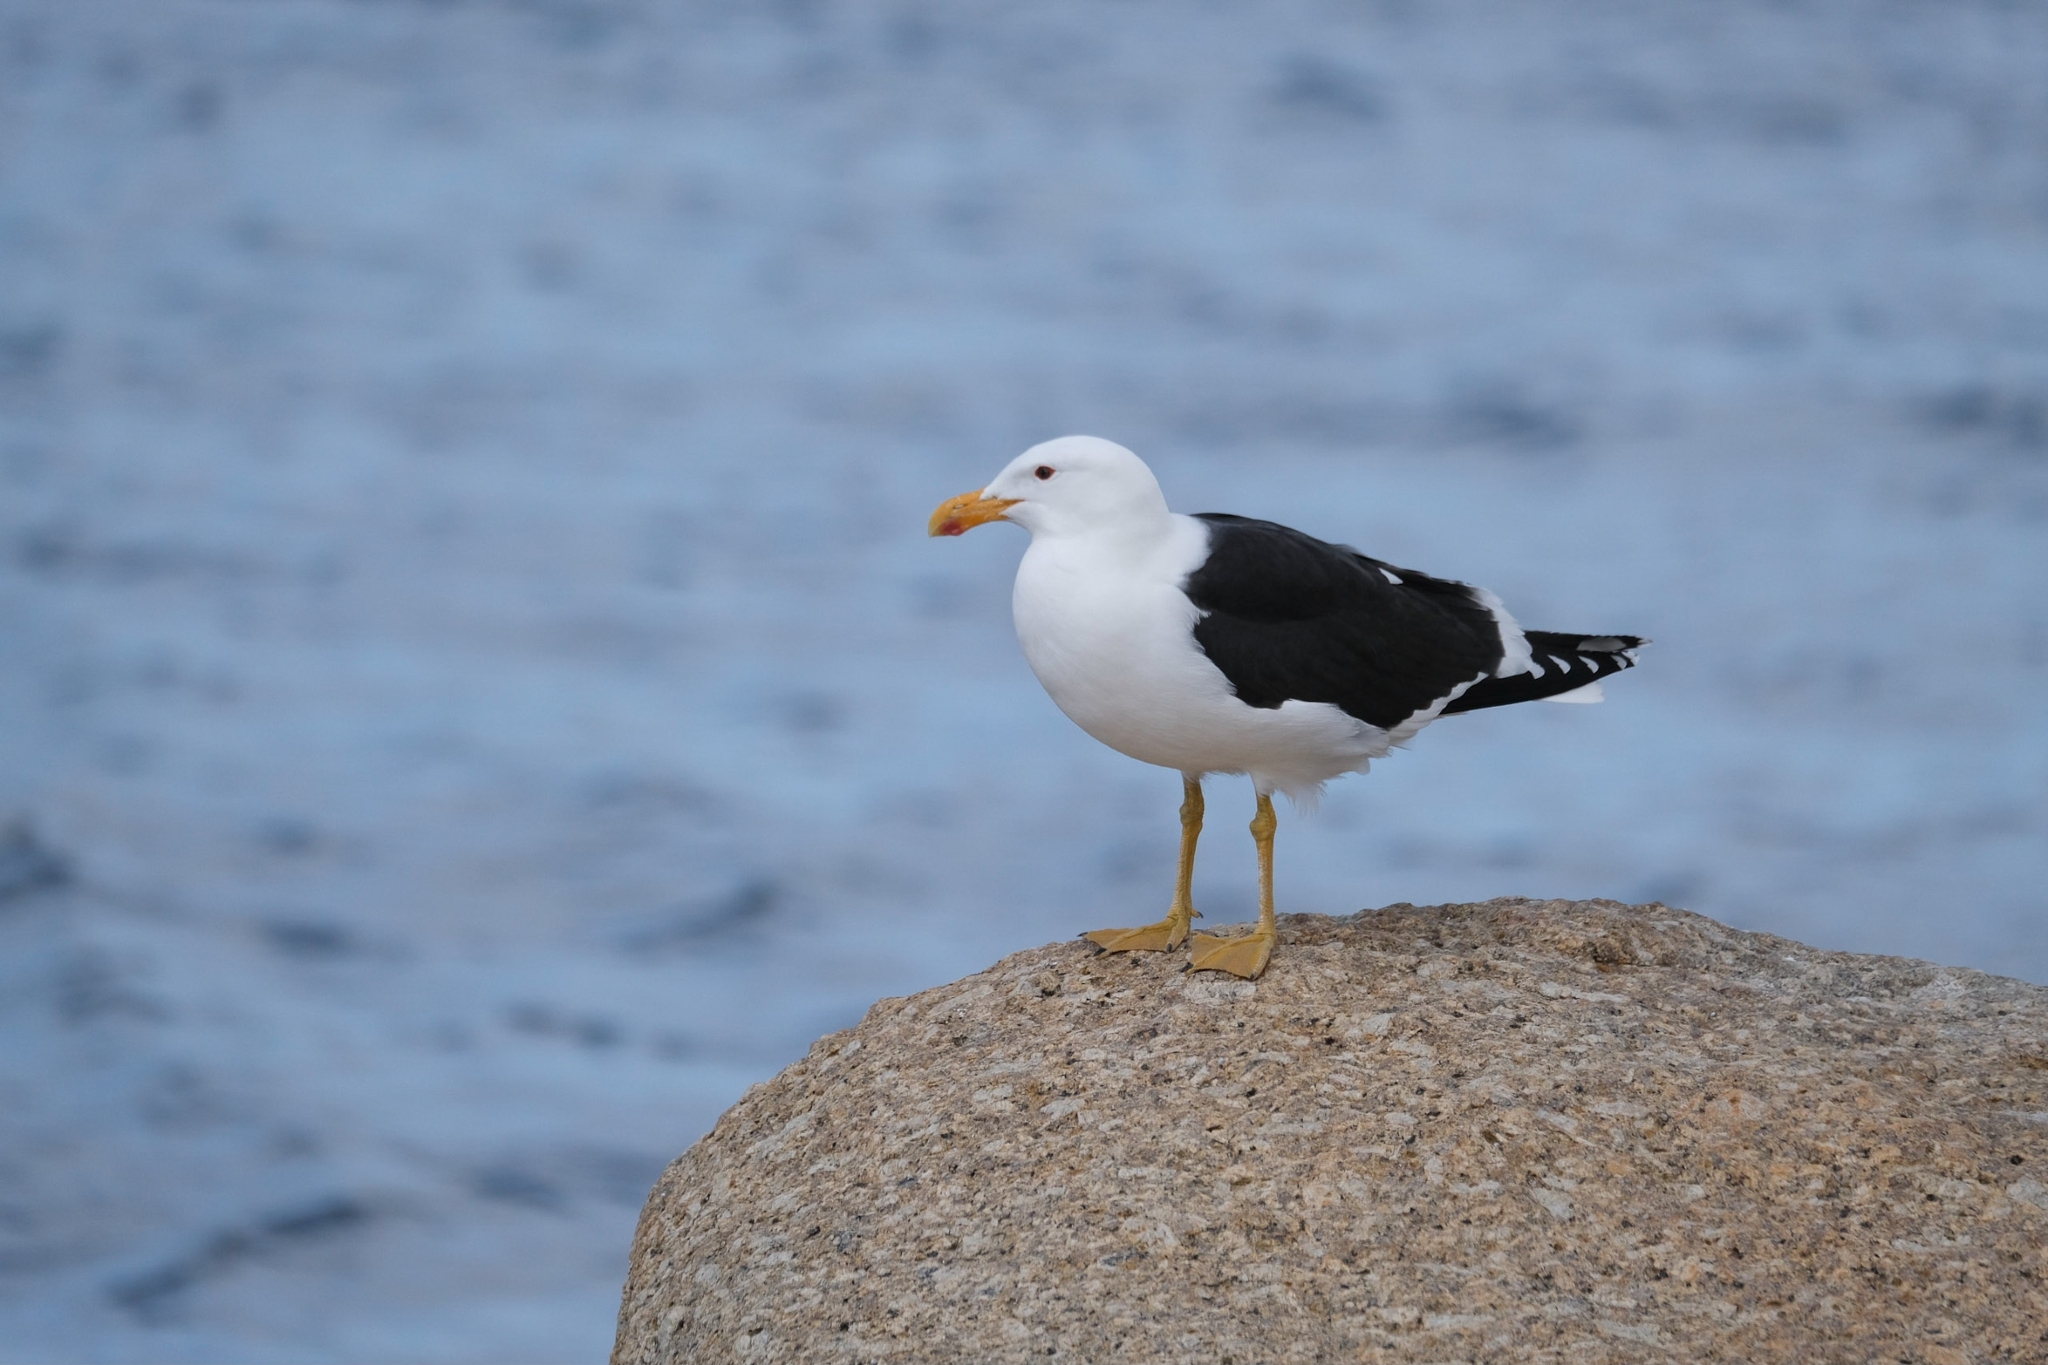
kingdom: Animalia
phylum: Chordata
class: Aves
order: Charadriiformes
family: Laridae
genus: Larus
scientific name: Larus dominicanus
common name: Kelp gull
